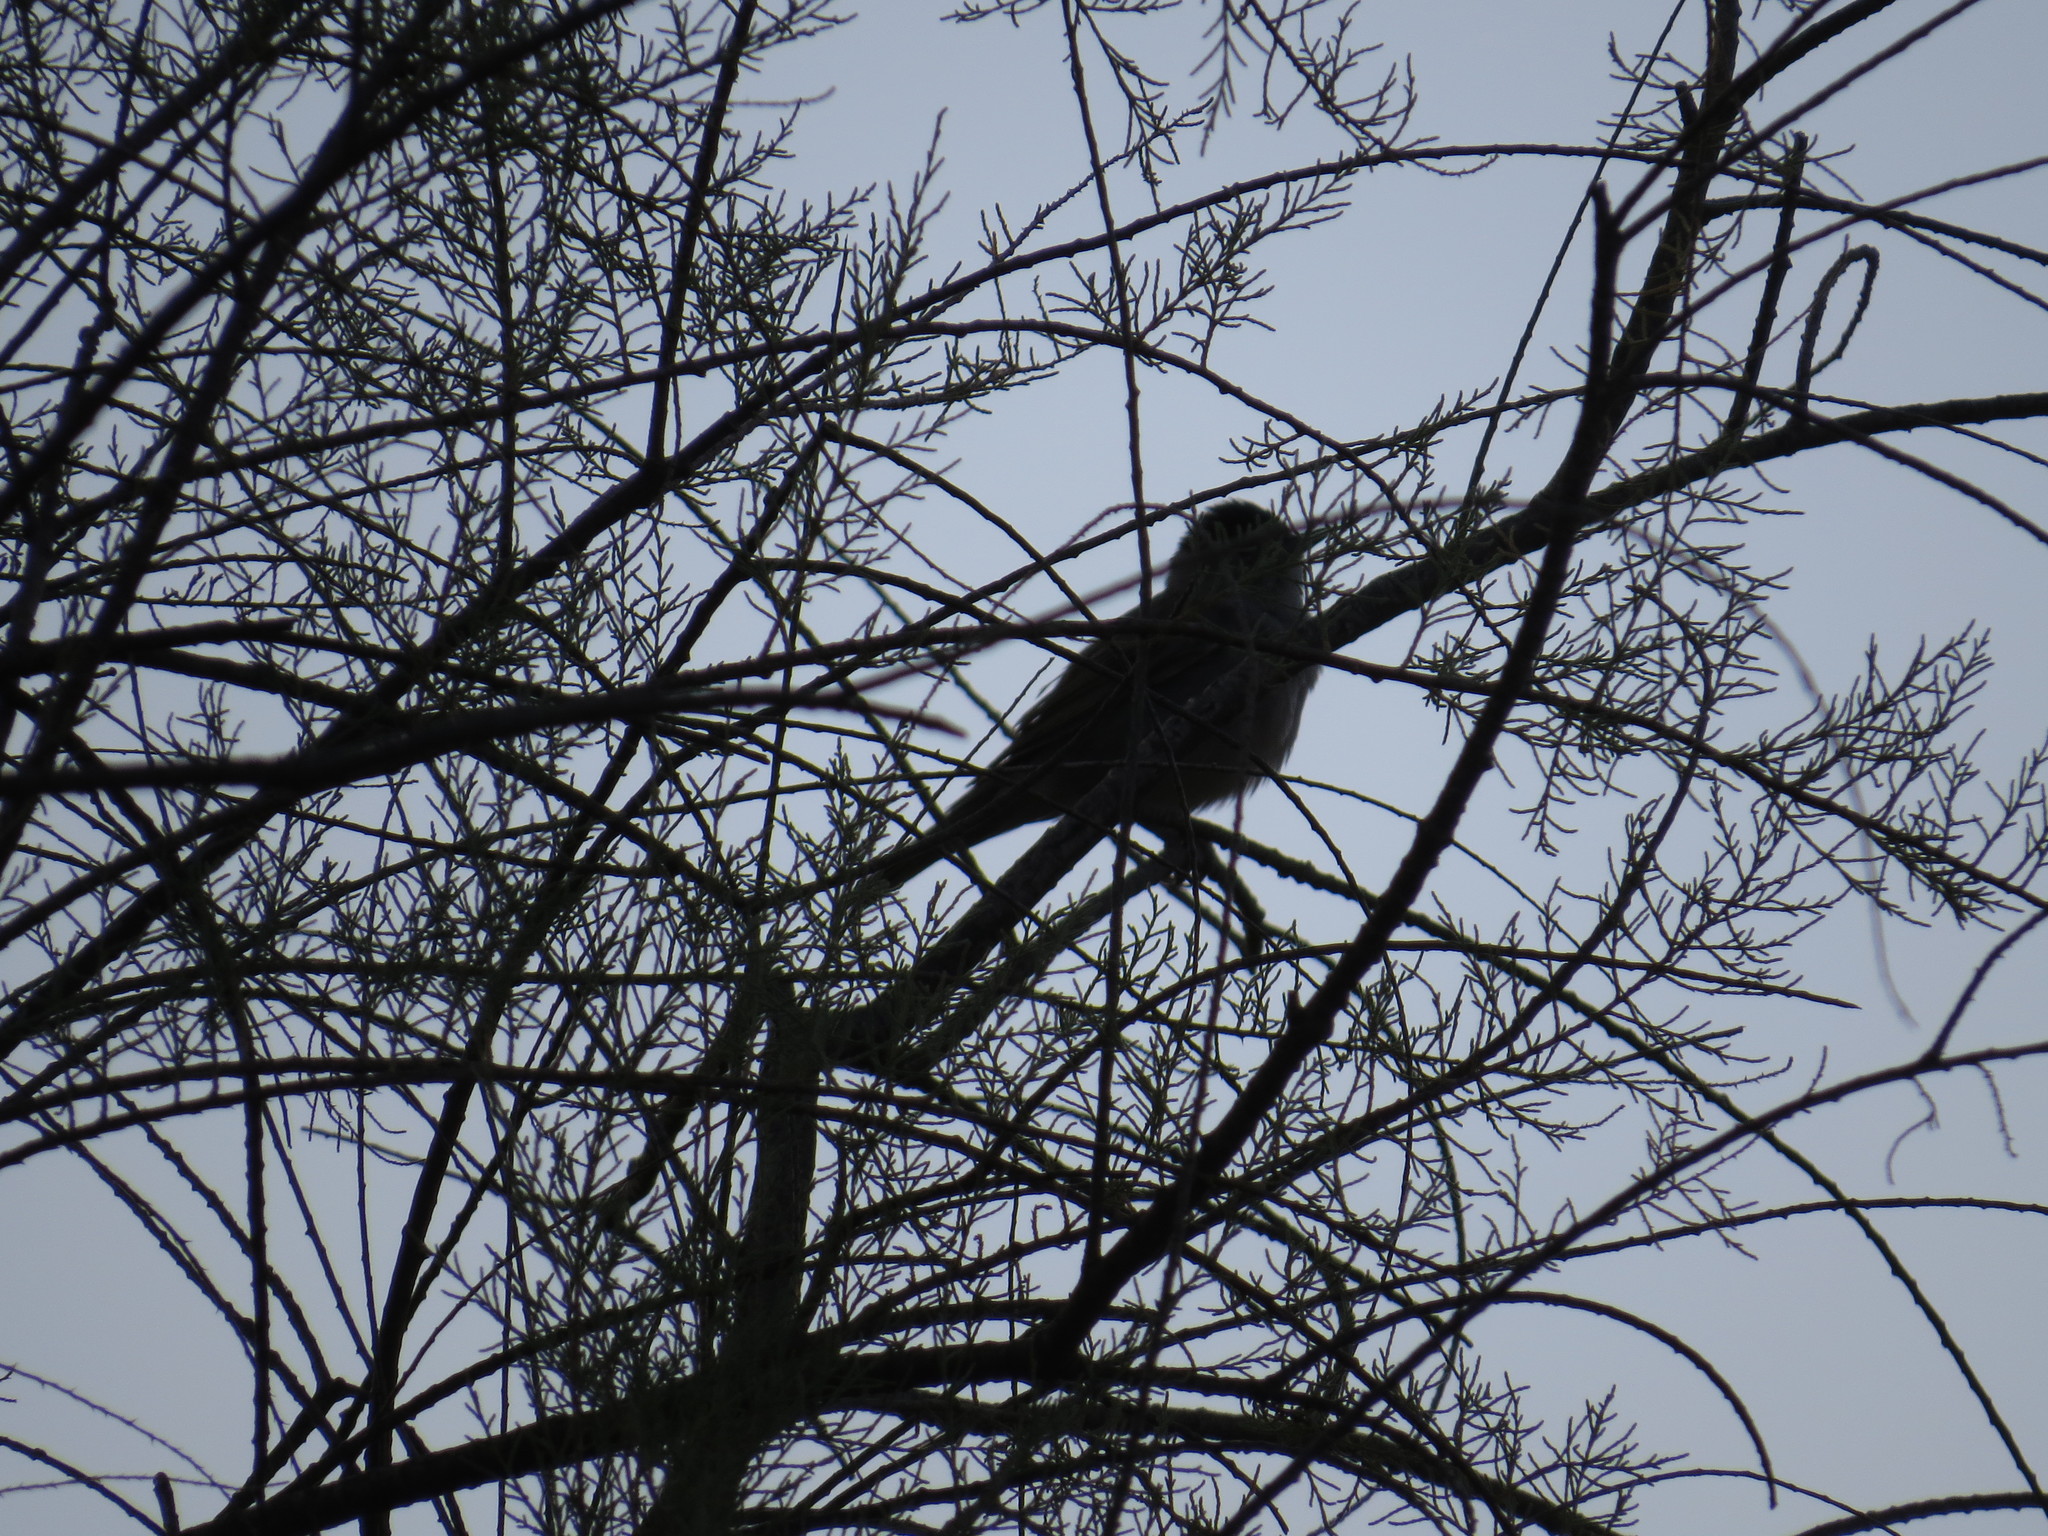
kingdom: Animalia
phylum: Chordata
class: Aves
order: Passeriformes
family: Sylviidae
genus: Sylvia
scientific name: Sylvia atricapilla
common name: Eurasian blackcap
